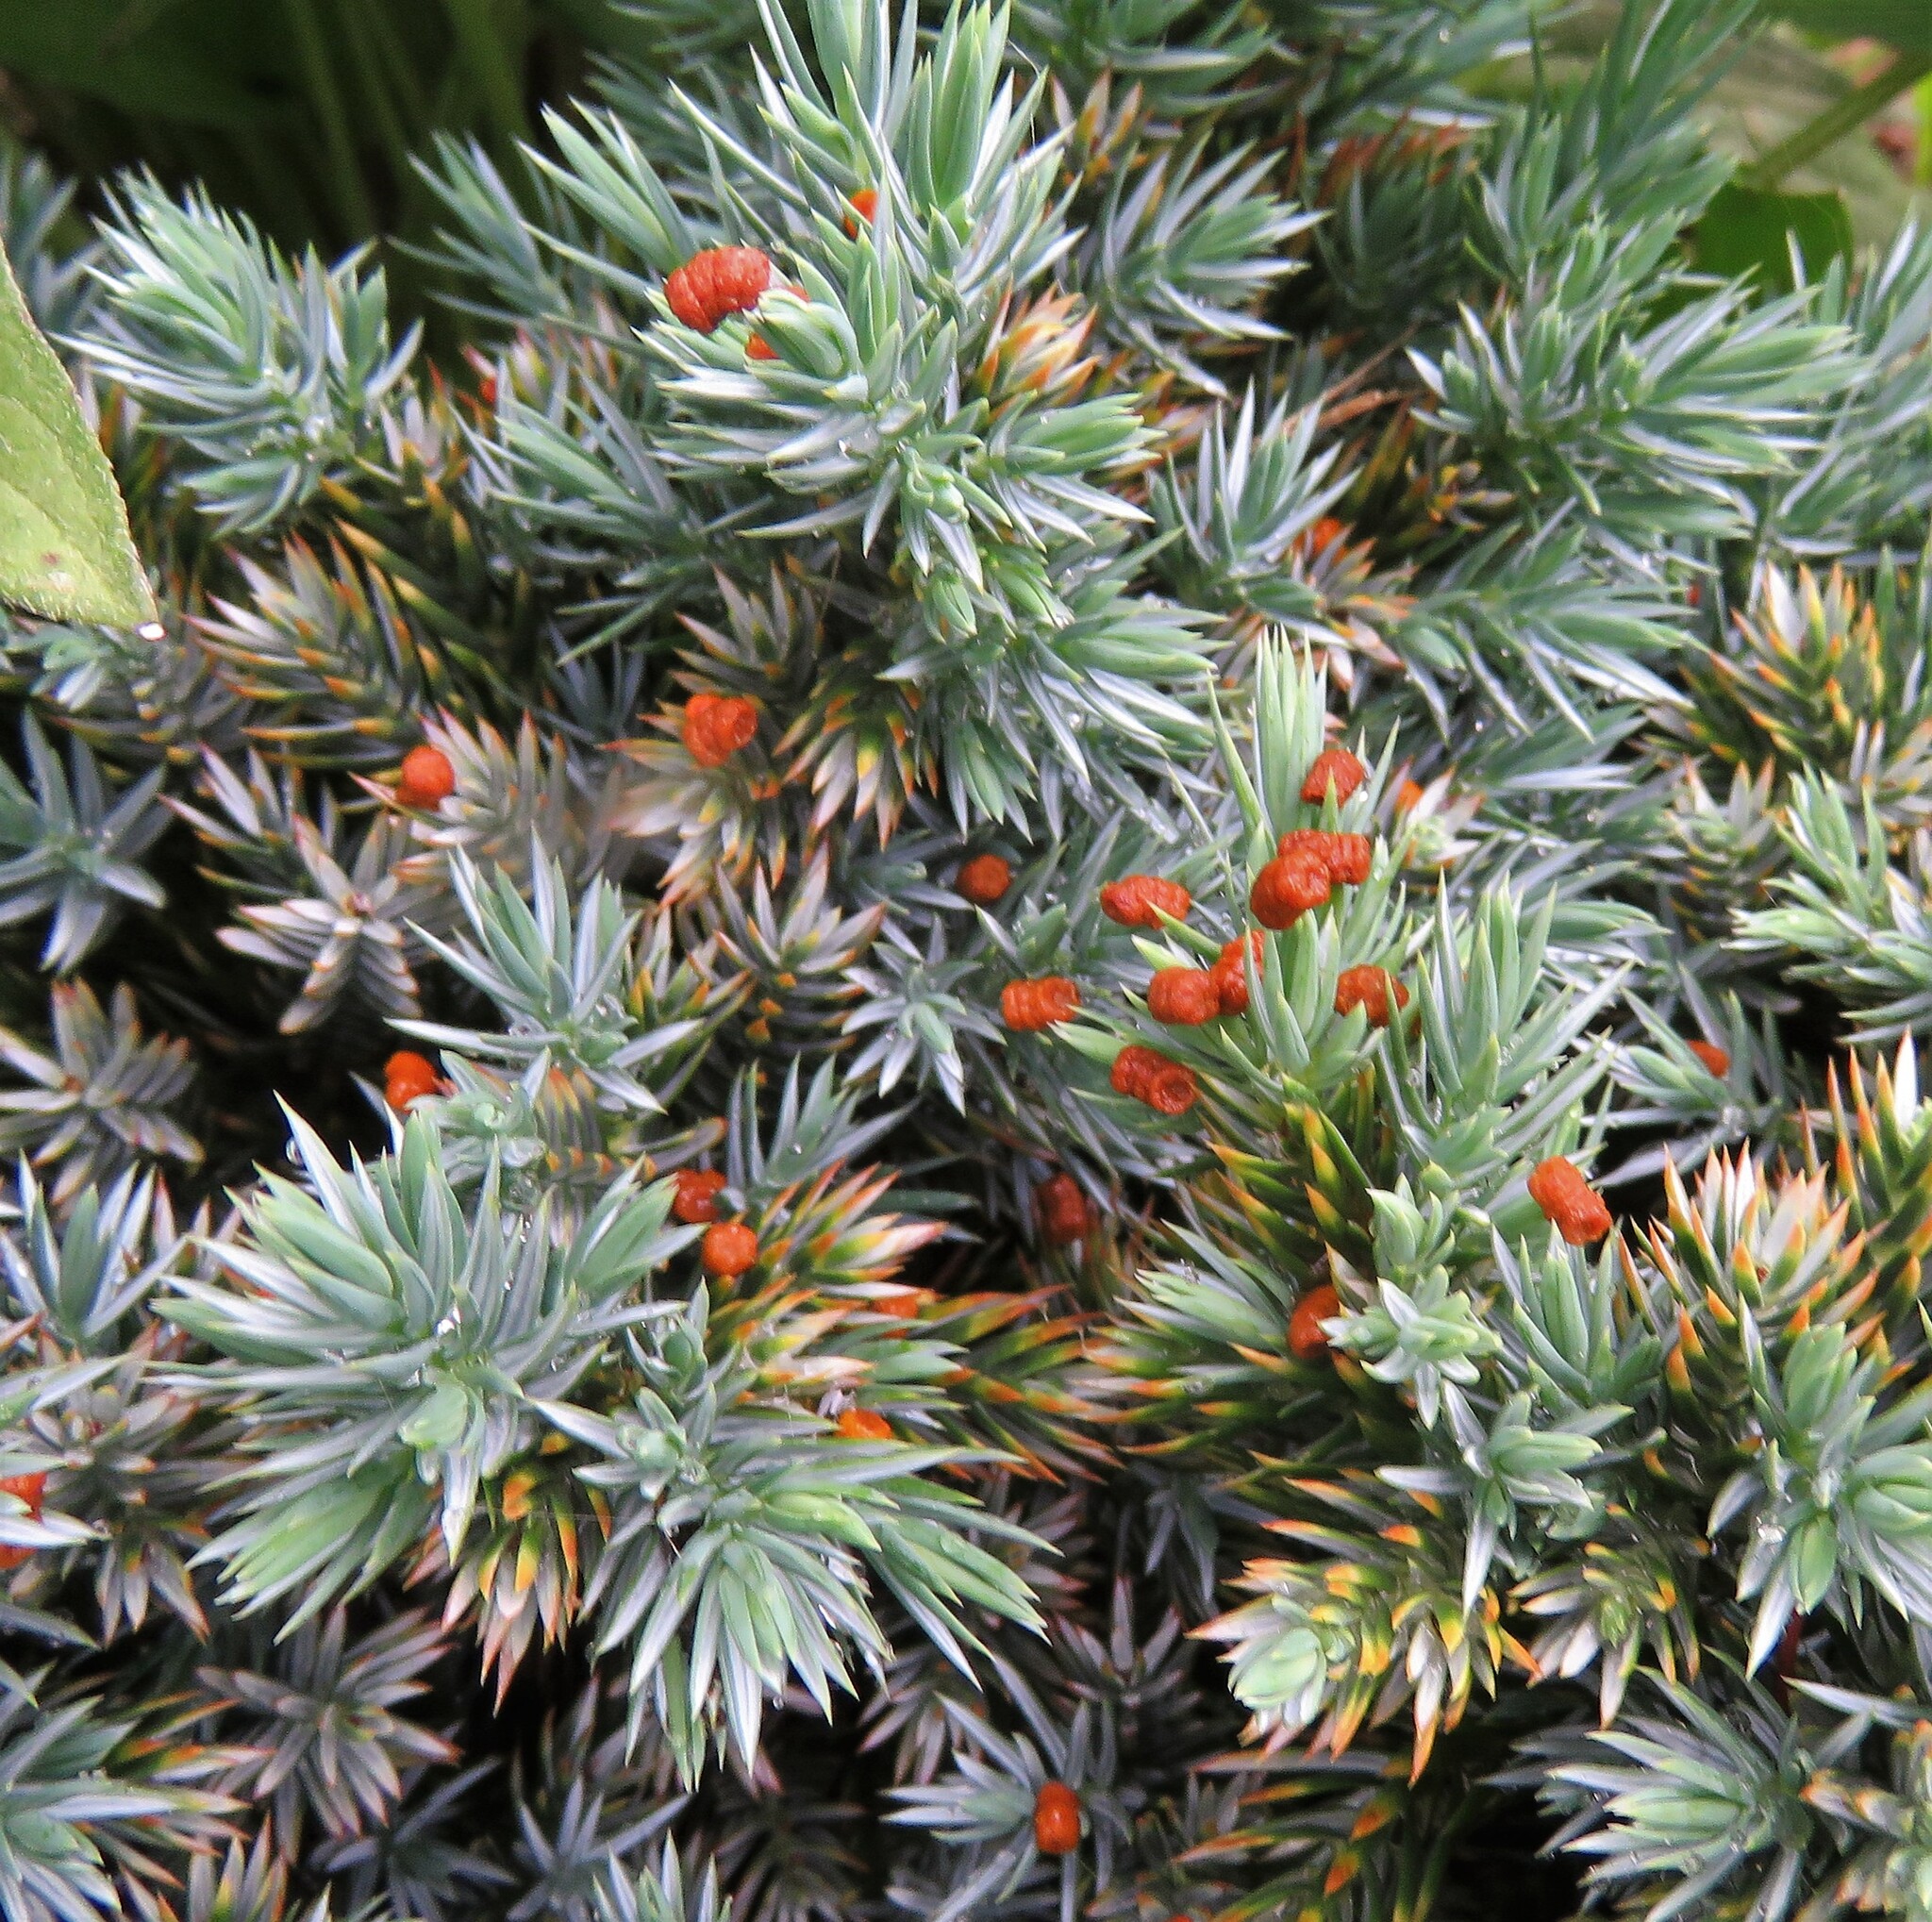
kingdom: Animalia
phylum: Arthropoda
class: Insecta
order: Lepidoptera
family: Erebidae
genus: Spilosoma
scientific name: Spilosoma virginica
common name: Virginia tiger moth
